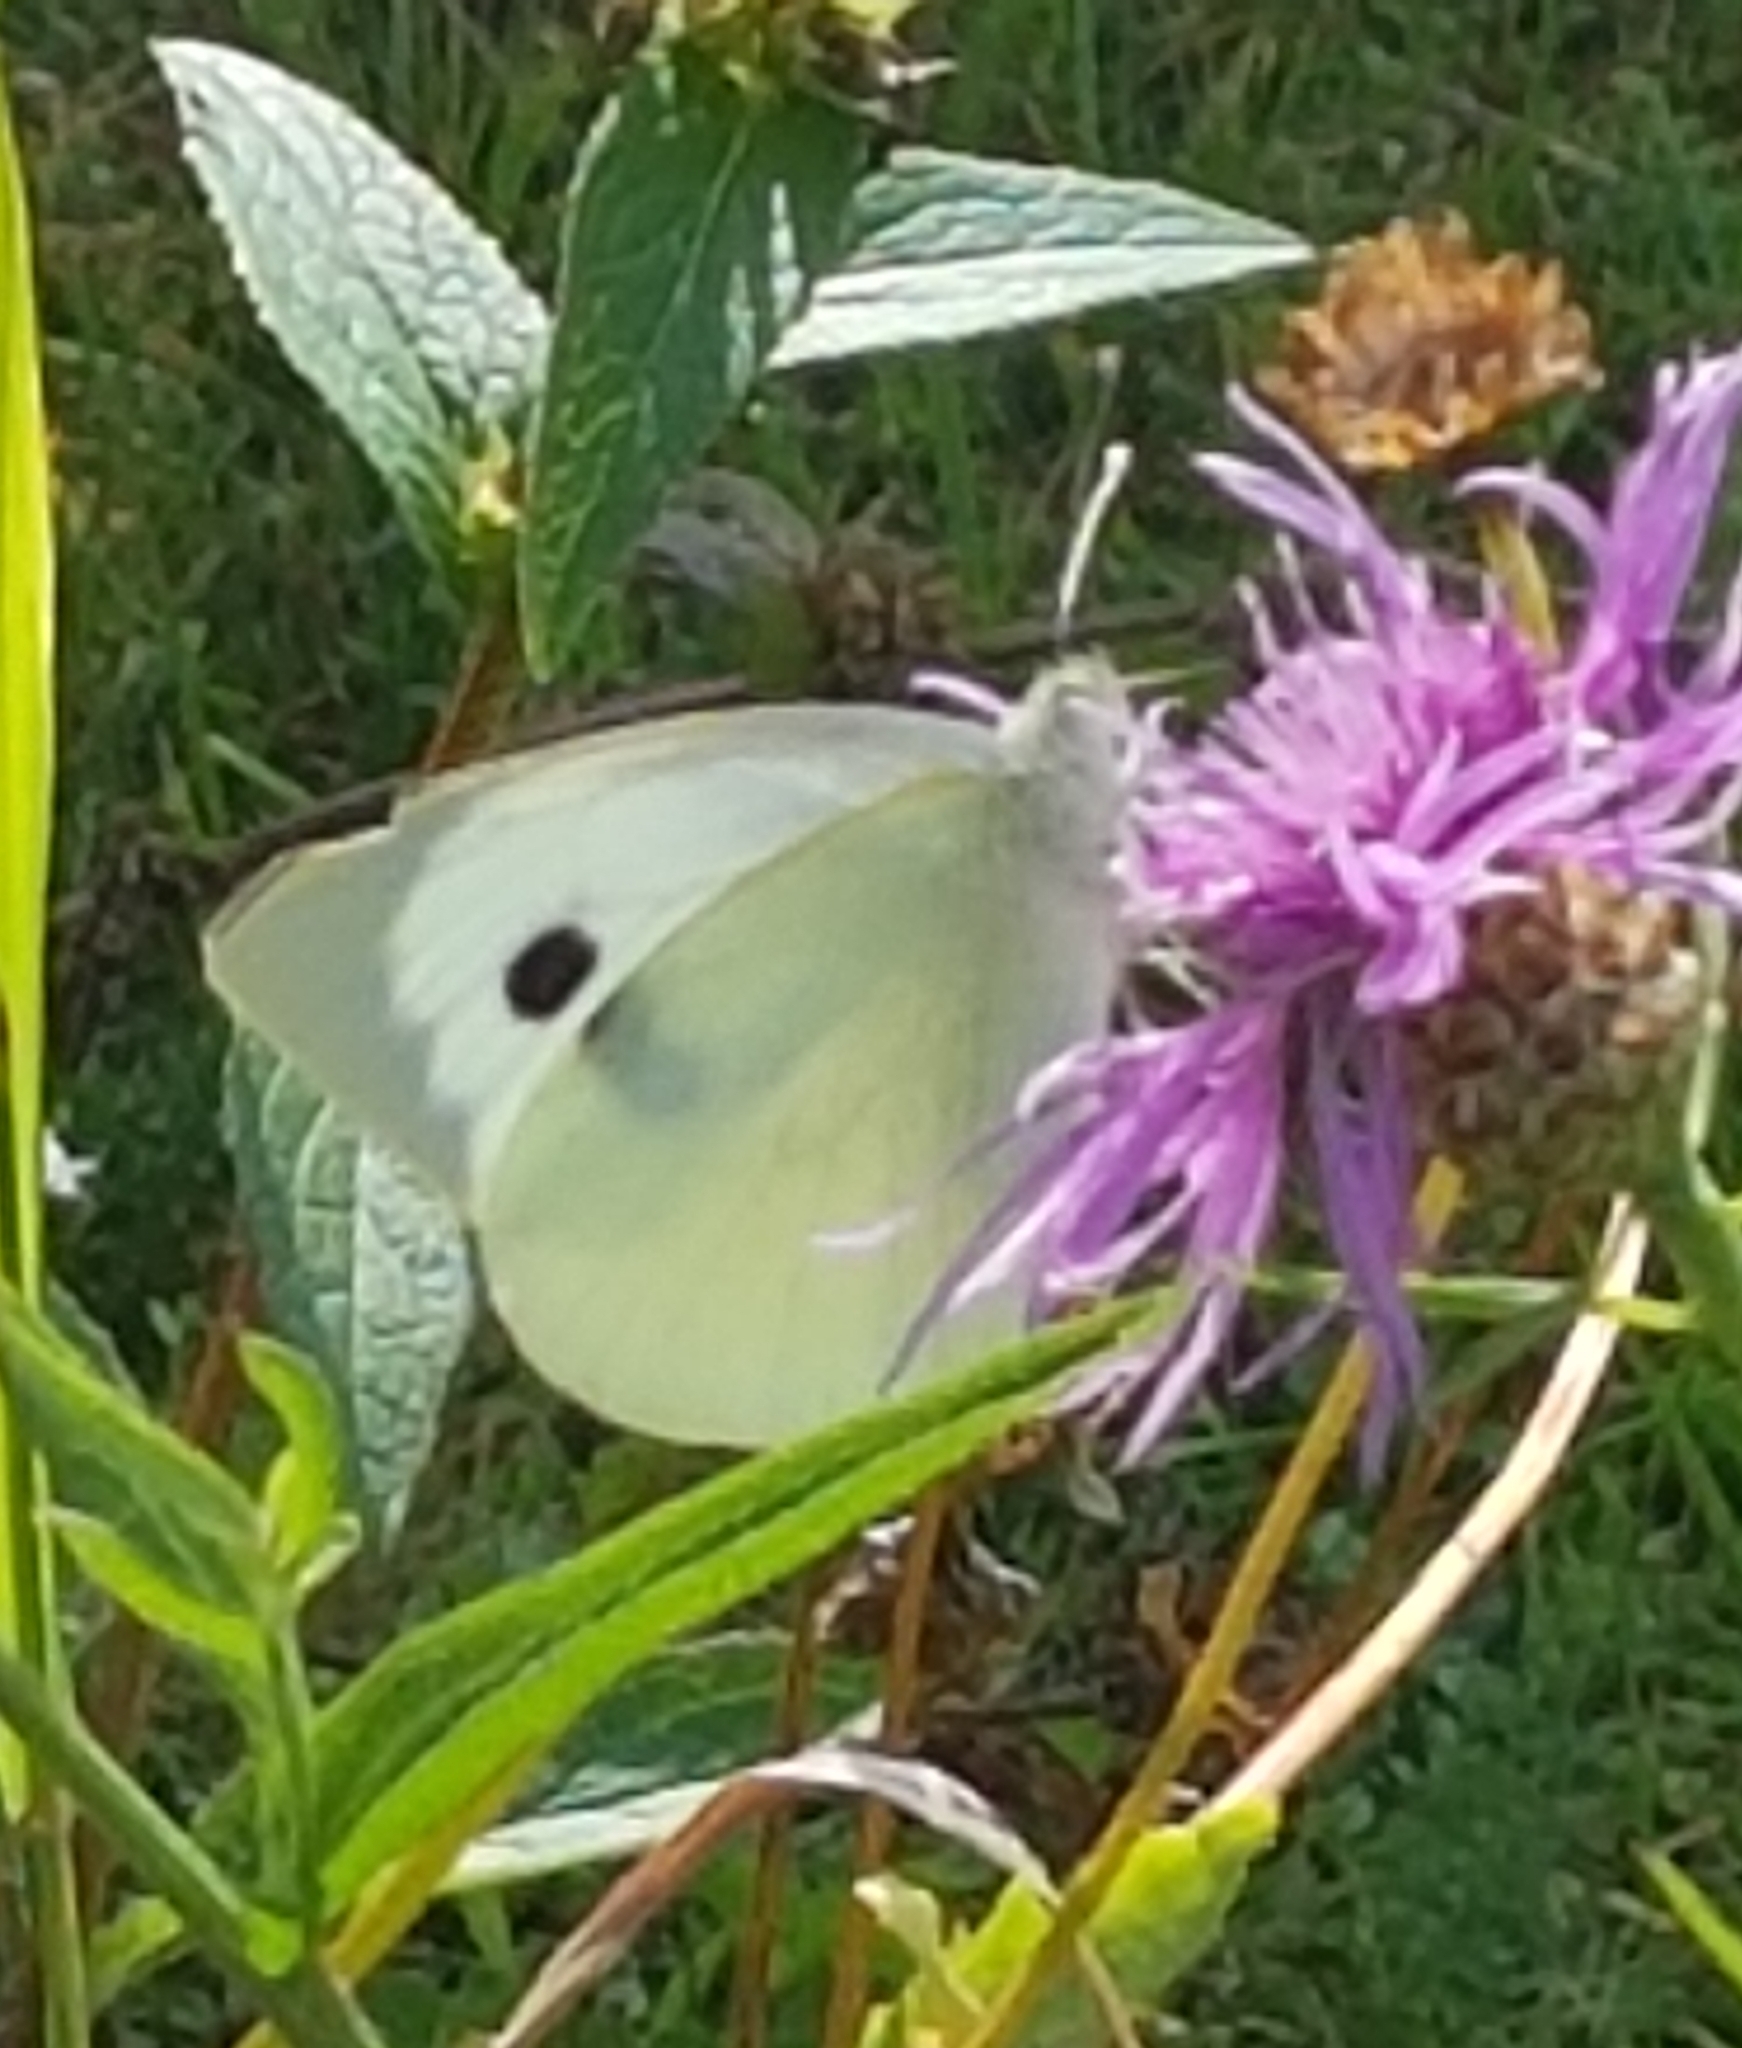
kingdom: Animalia
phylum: Arthropoda
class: Insecta
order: Lepidoptera
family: Pieridae
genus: Pieris
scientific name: Pieris brassicae
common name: Large white
